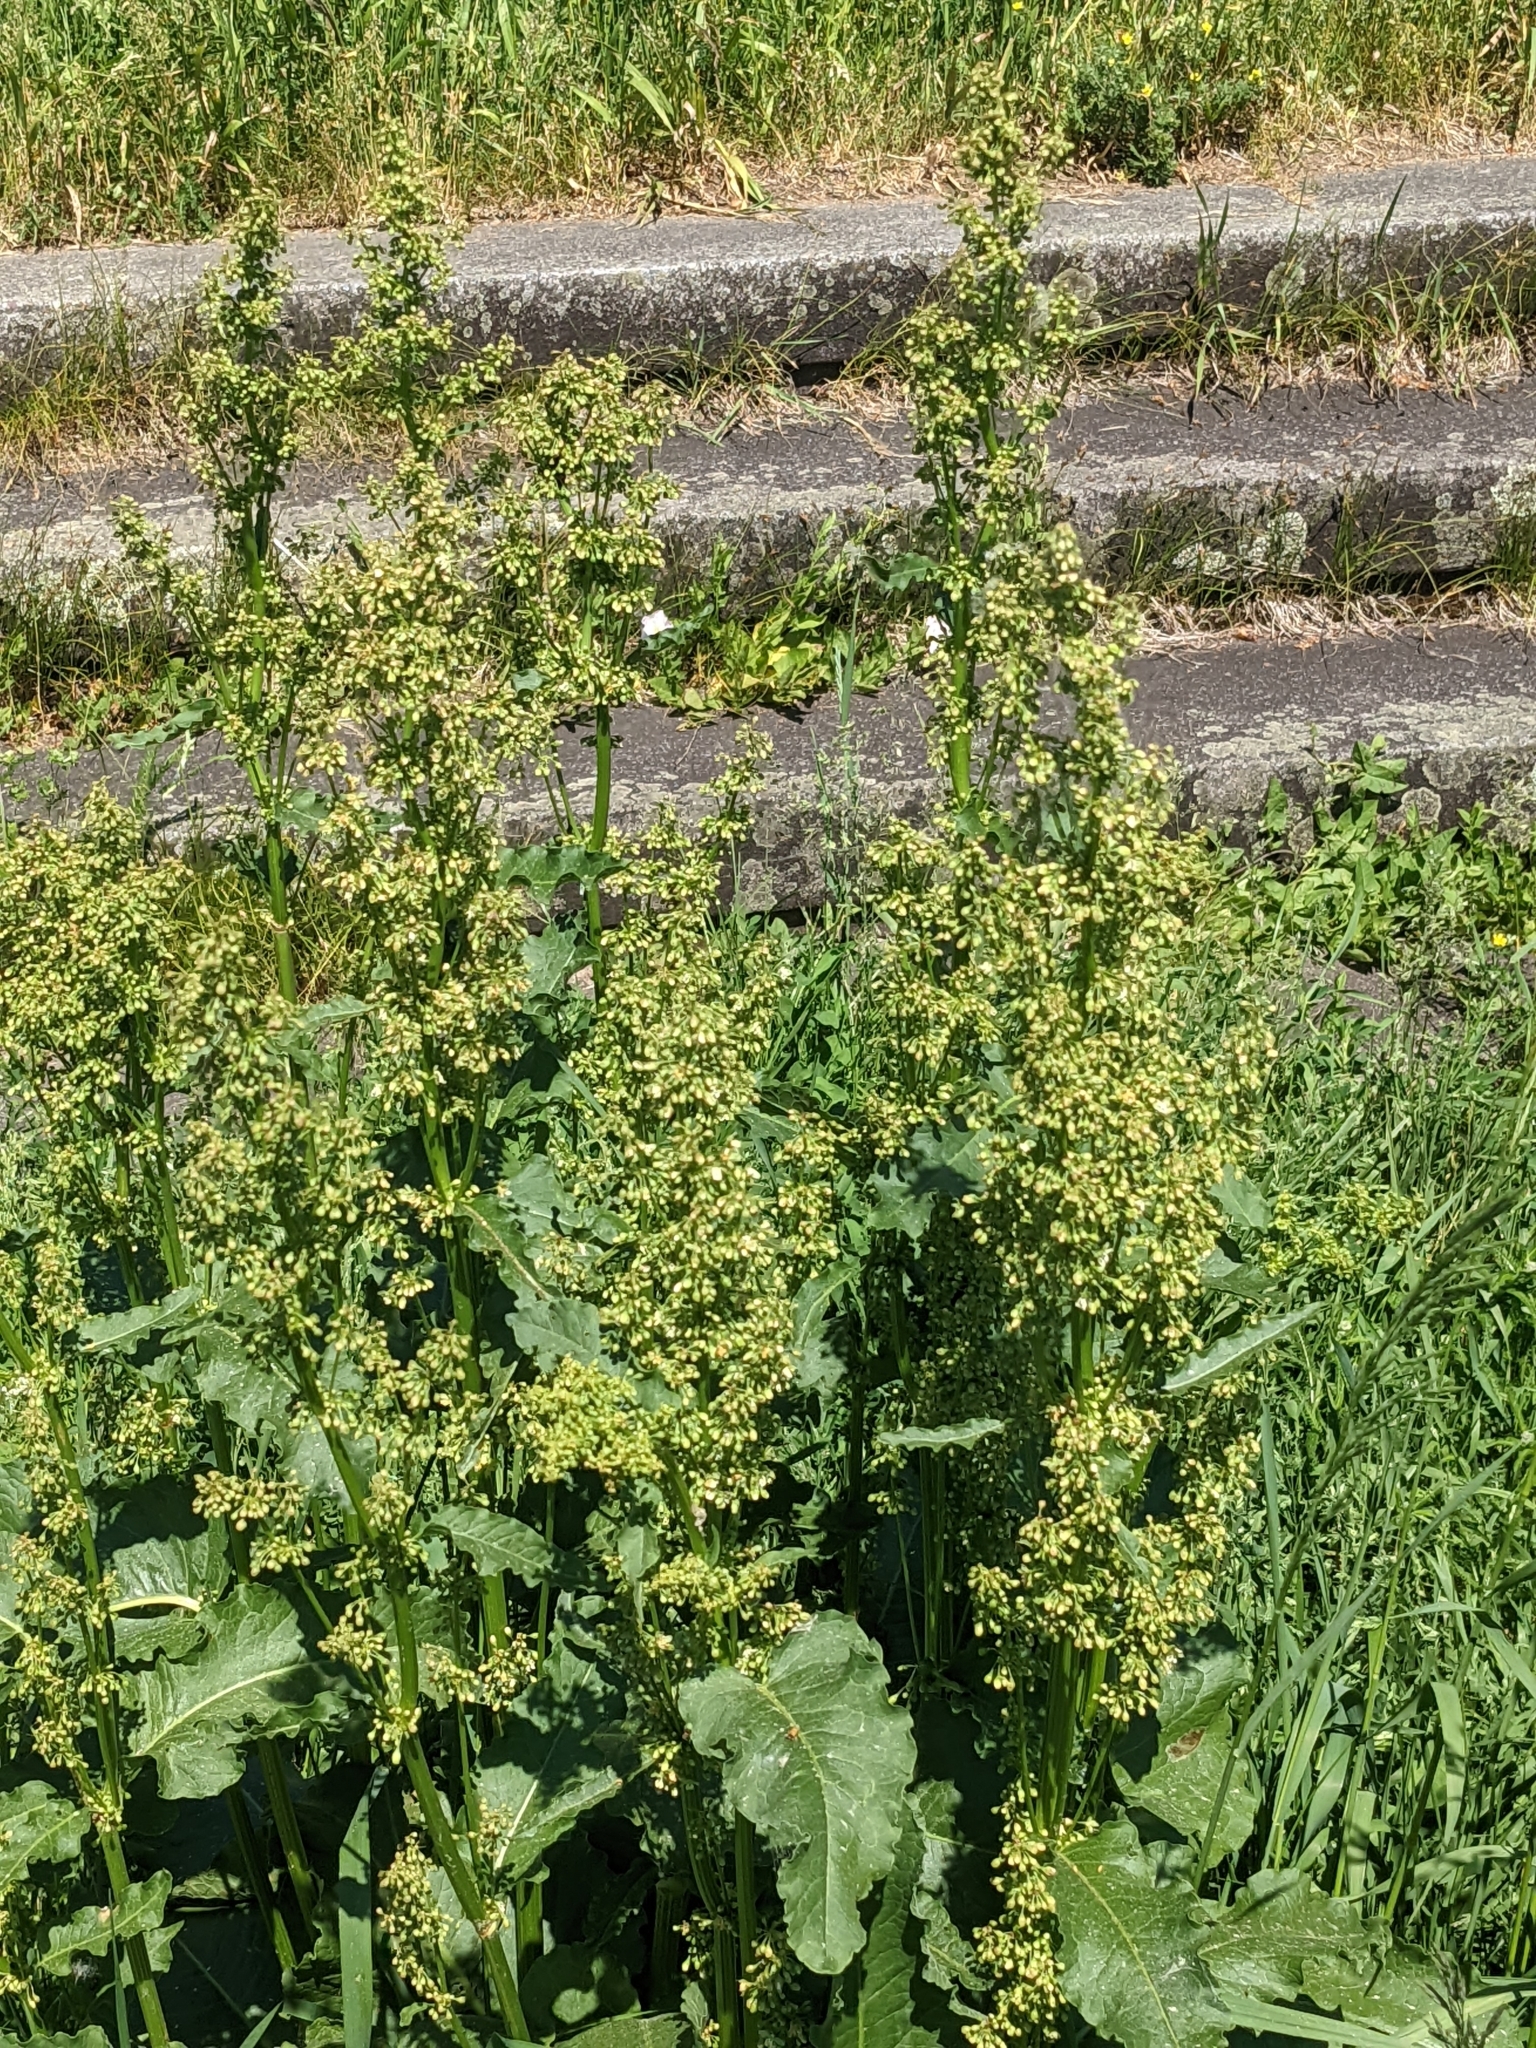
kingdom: Plantae
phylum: Tracheophyta
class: Magnoliopsida
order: Caryophyllales
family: Polygonaceae
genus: Rumex
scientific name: Rumex confertus
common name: Russian dock
